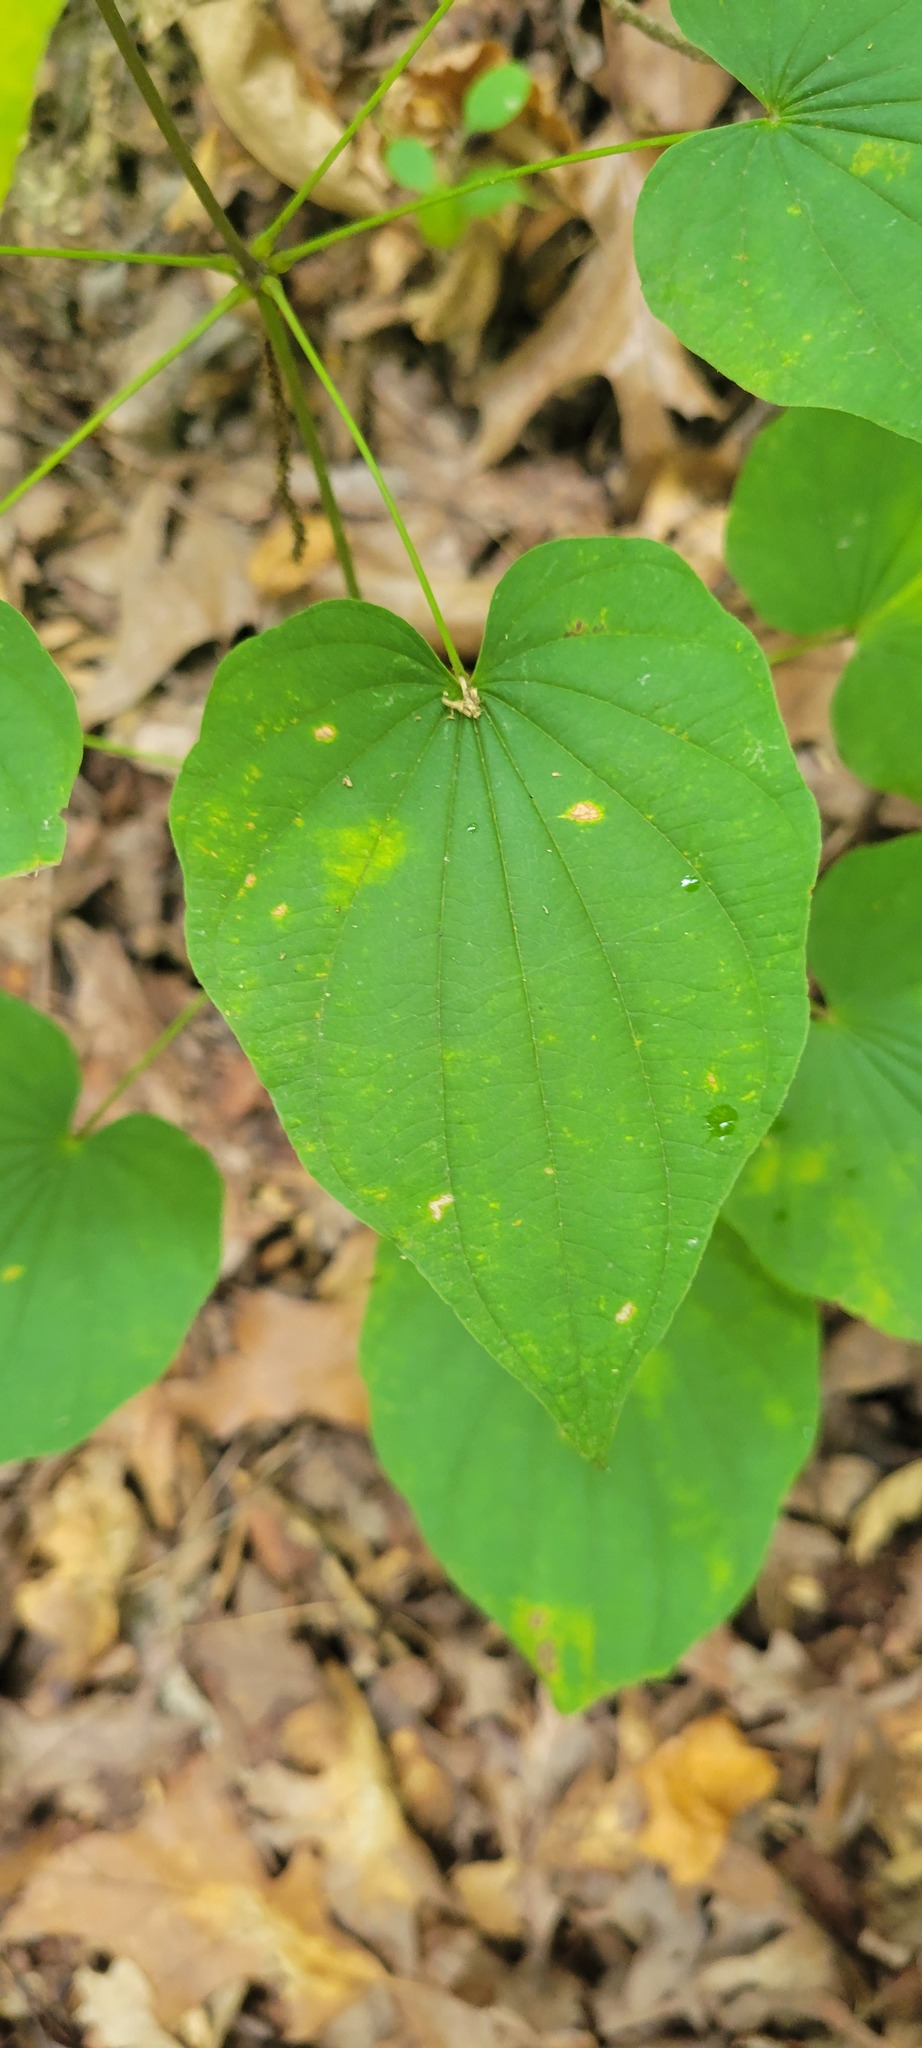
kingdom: Plantae
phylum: Tracheophyta
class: Liliopsida
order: Dioscoreales
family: Dioscoreaceae
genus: Dioscorea
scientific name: Dioscorea villosa
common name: Wild yam
